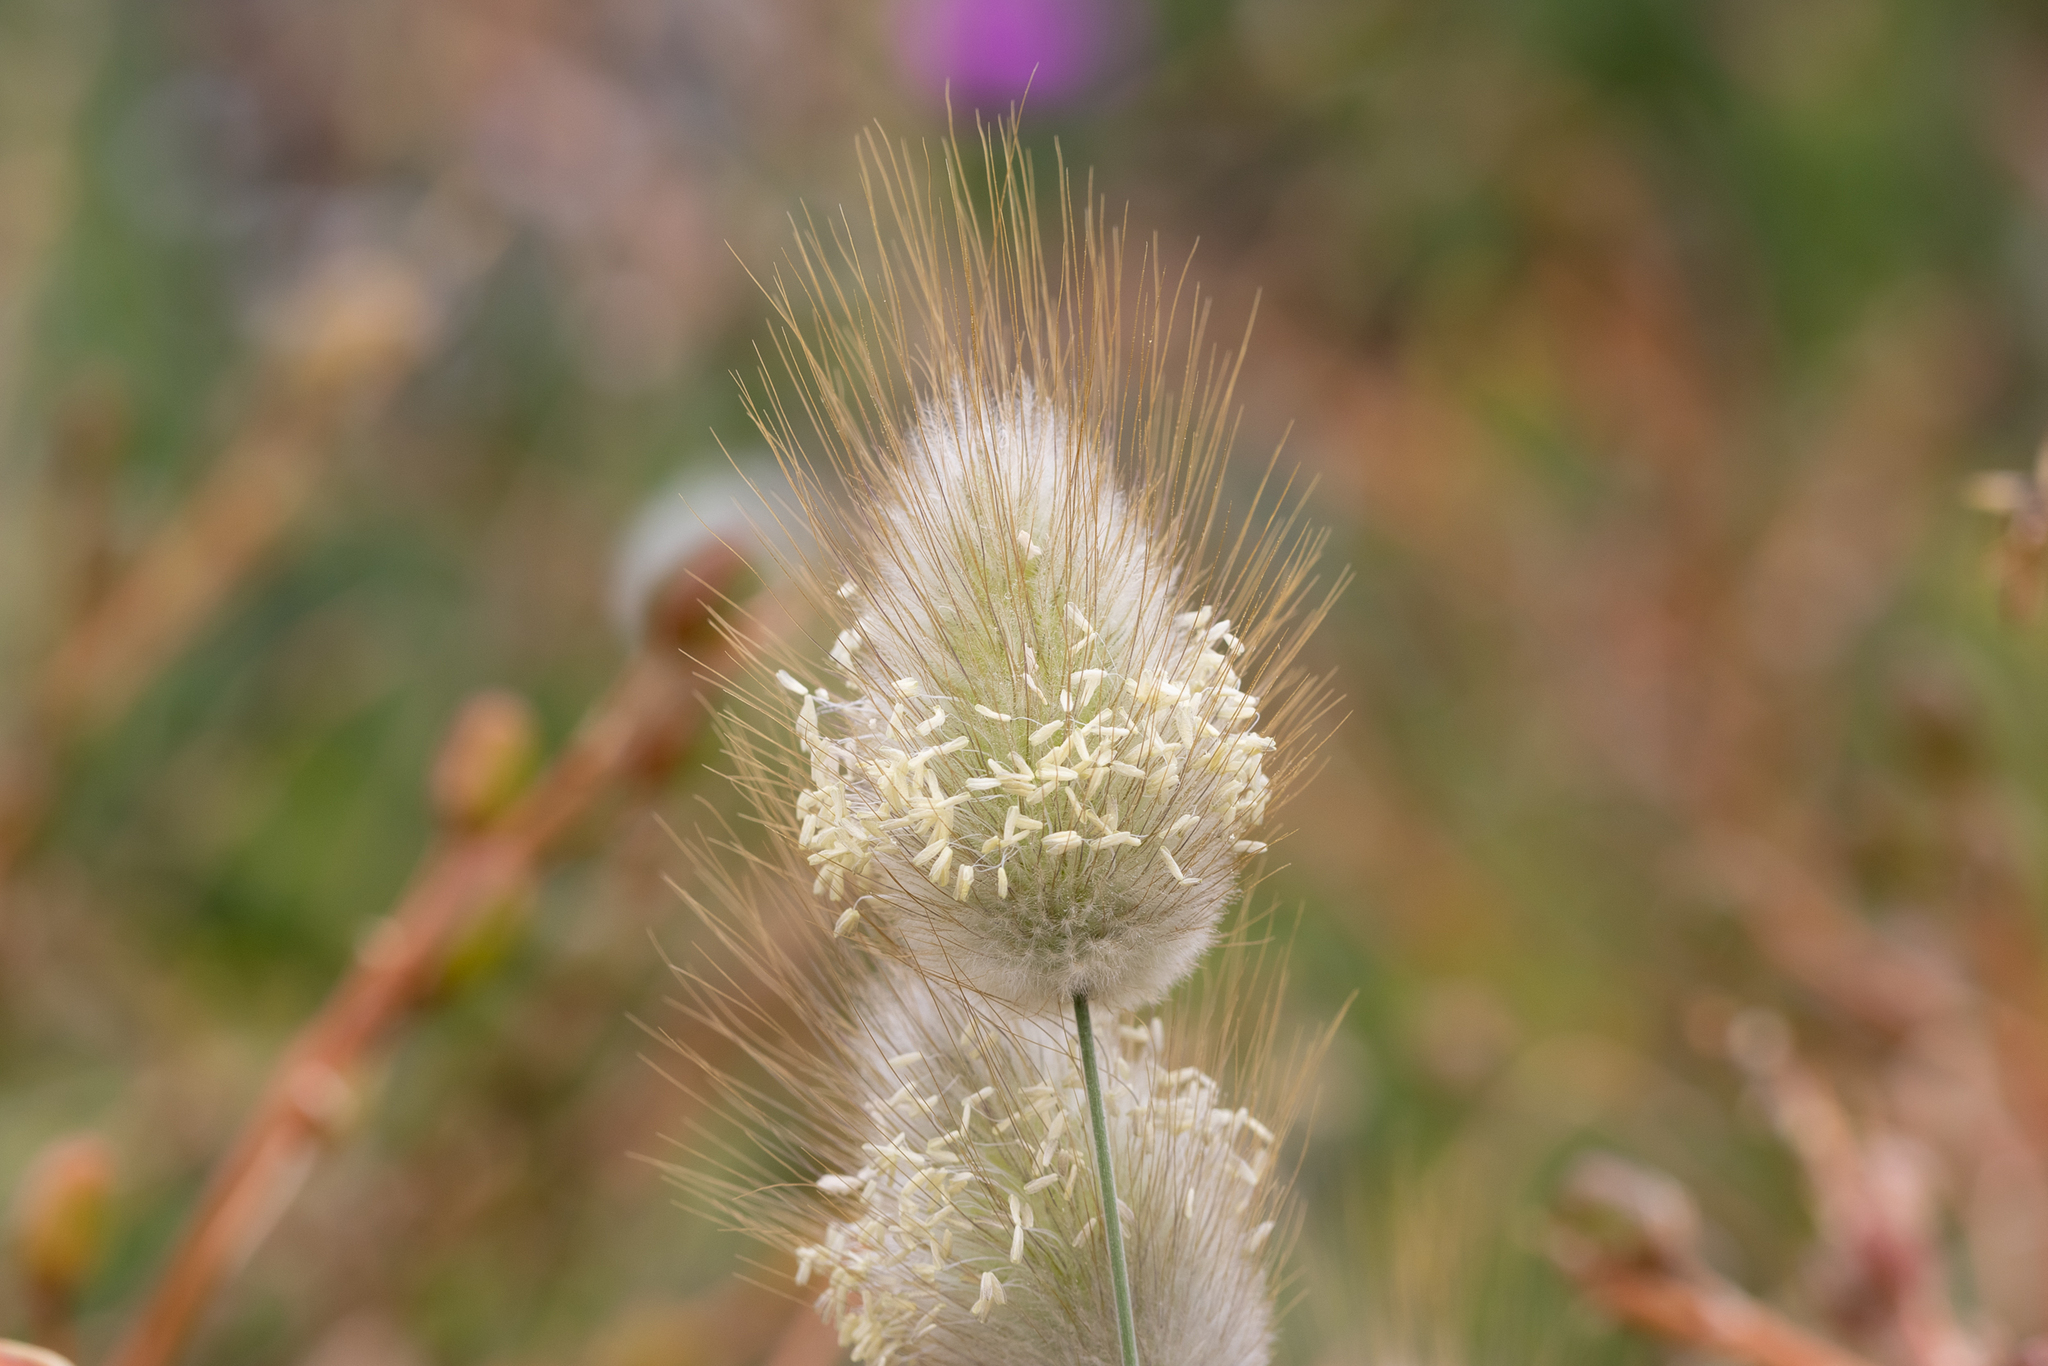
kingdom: Plantae
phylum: Tracheophyta
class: Liliopsida
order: Poales
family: Poaceae
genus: Lagurus
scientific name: Lagurus ovatus
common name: Hare's-tail
